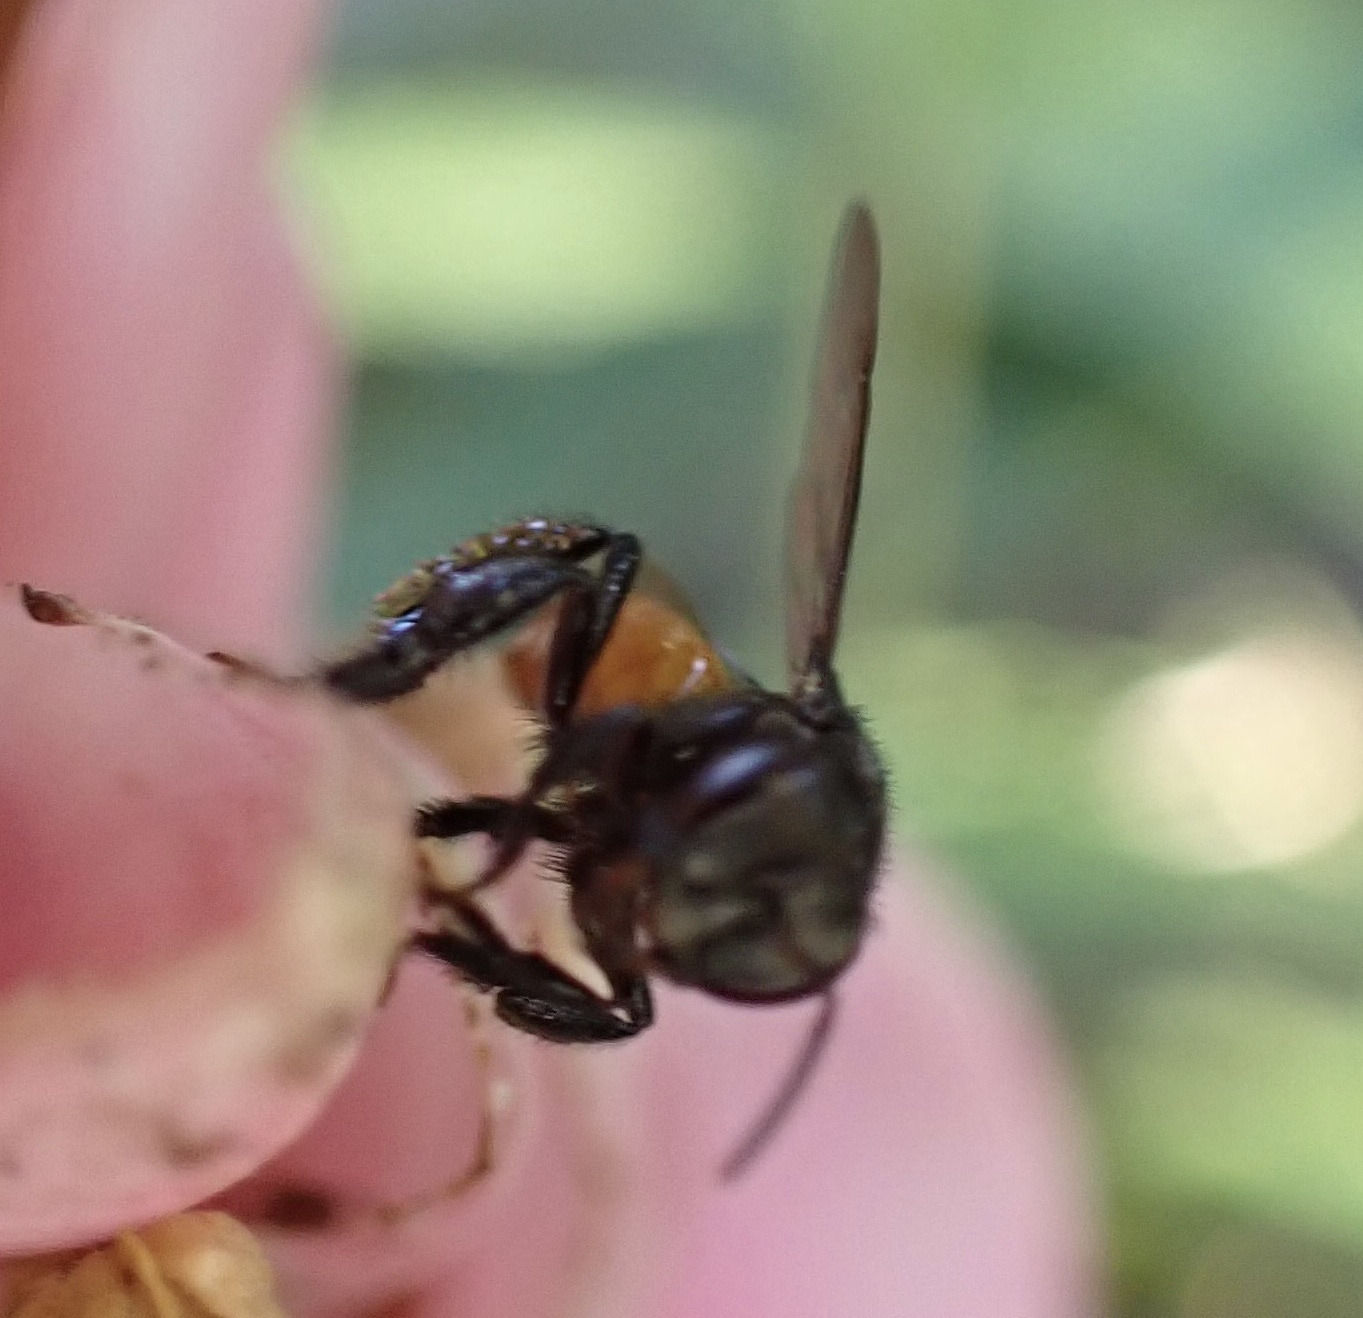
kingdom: Animalia
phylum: Arthropoda
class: Insecta
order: Hymenoptera
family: Apidae
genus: Trigona
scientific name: Trigona fulviventris
